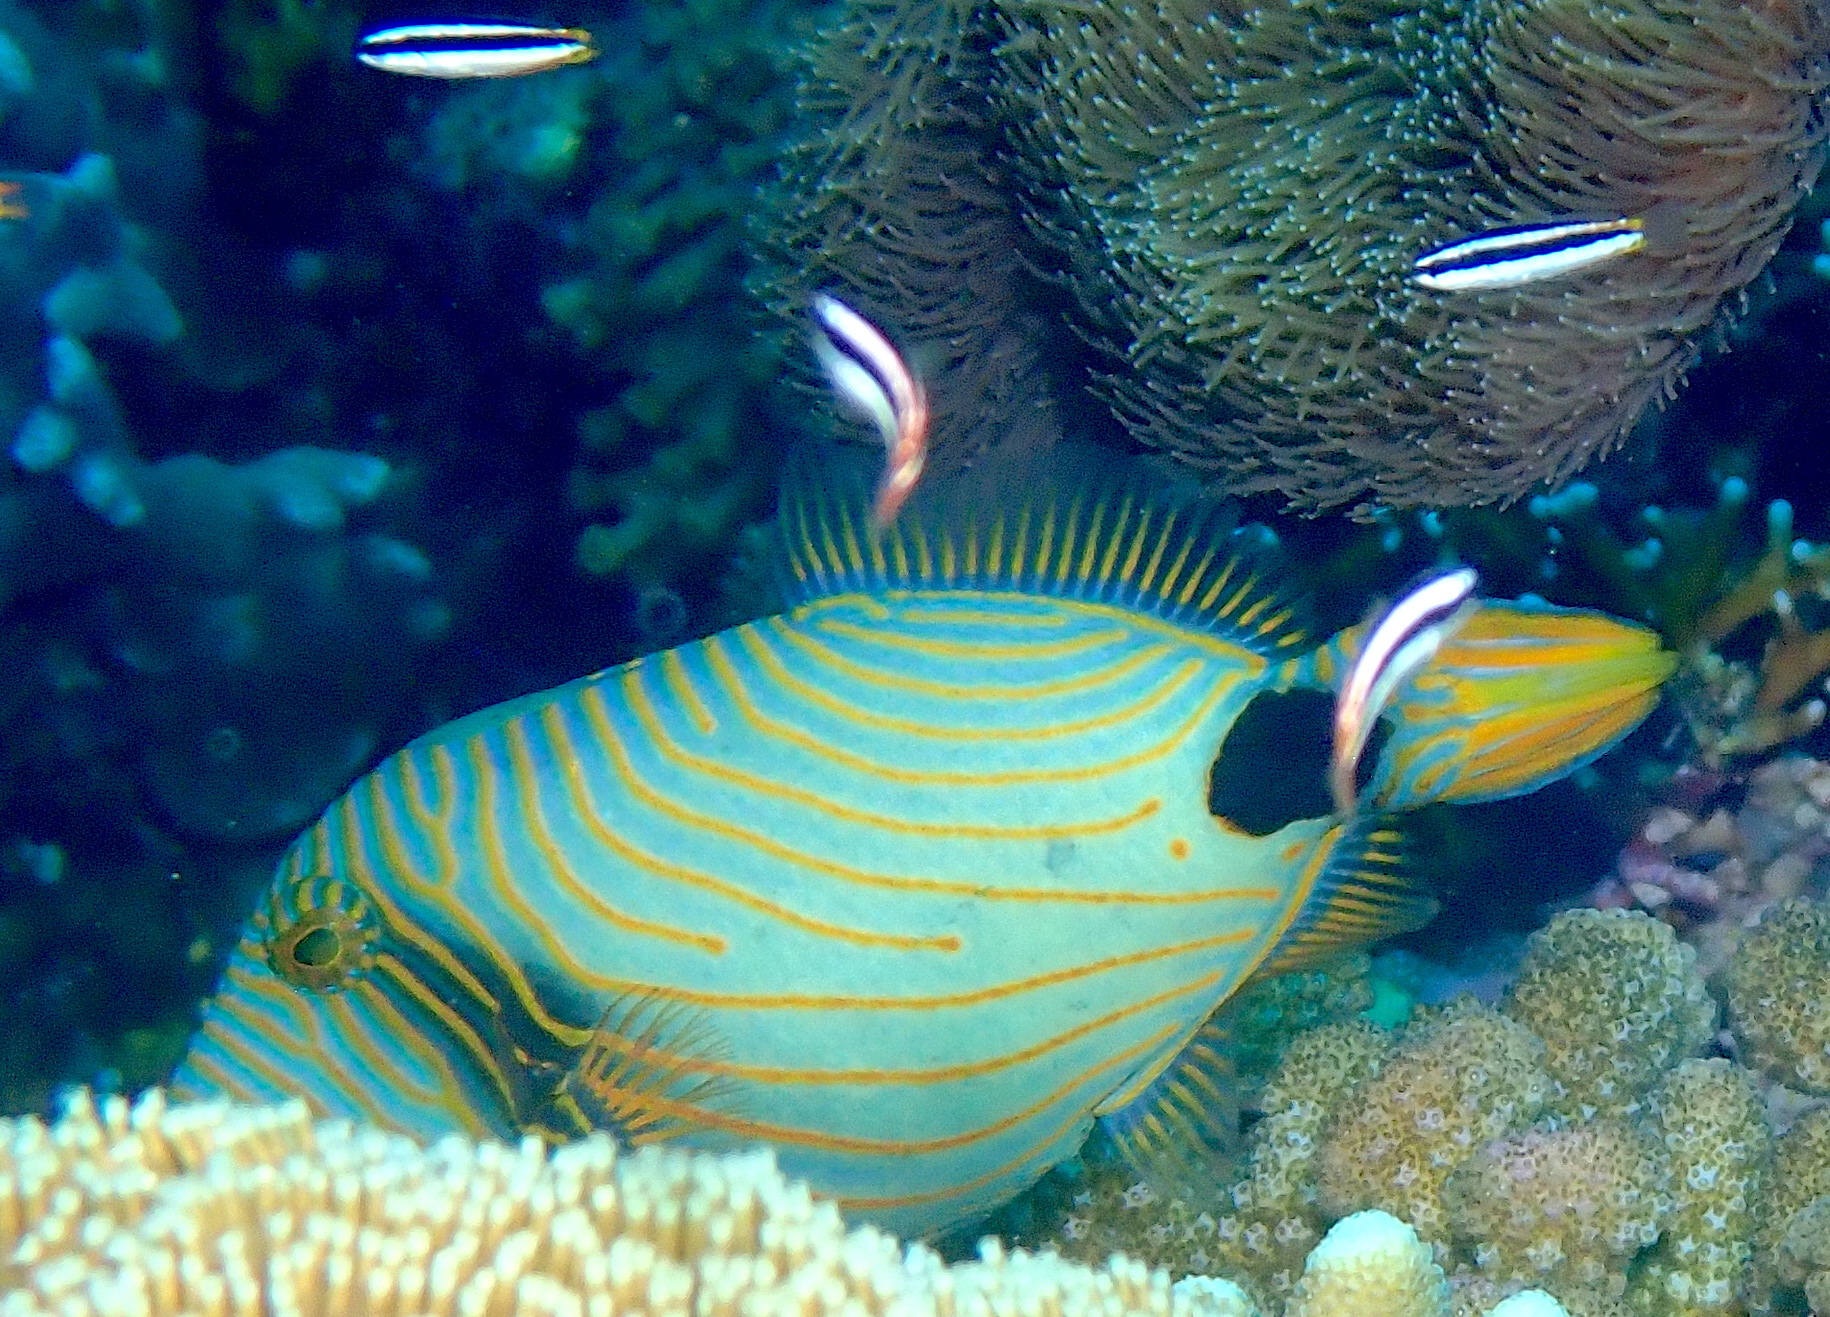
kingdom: Animalia
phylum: Chordata
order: Tetraodontiformes
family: Balistidae
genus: Balistapus
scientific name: Balistapus undulatus
